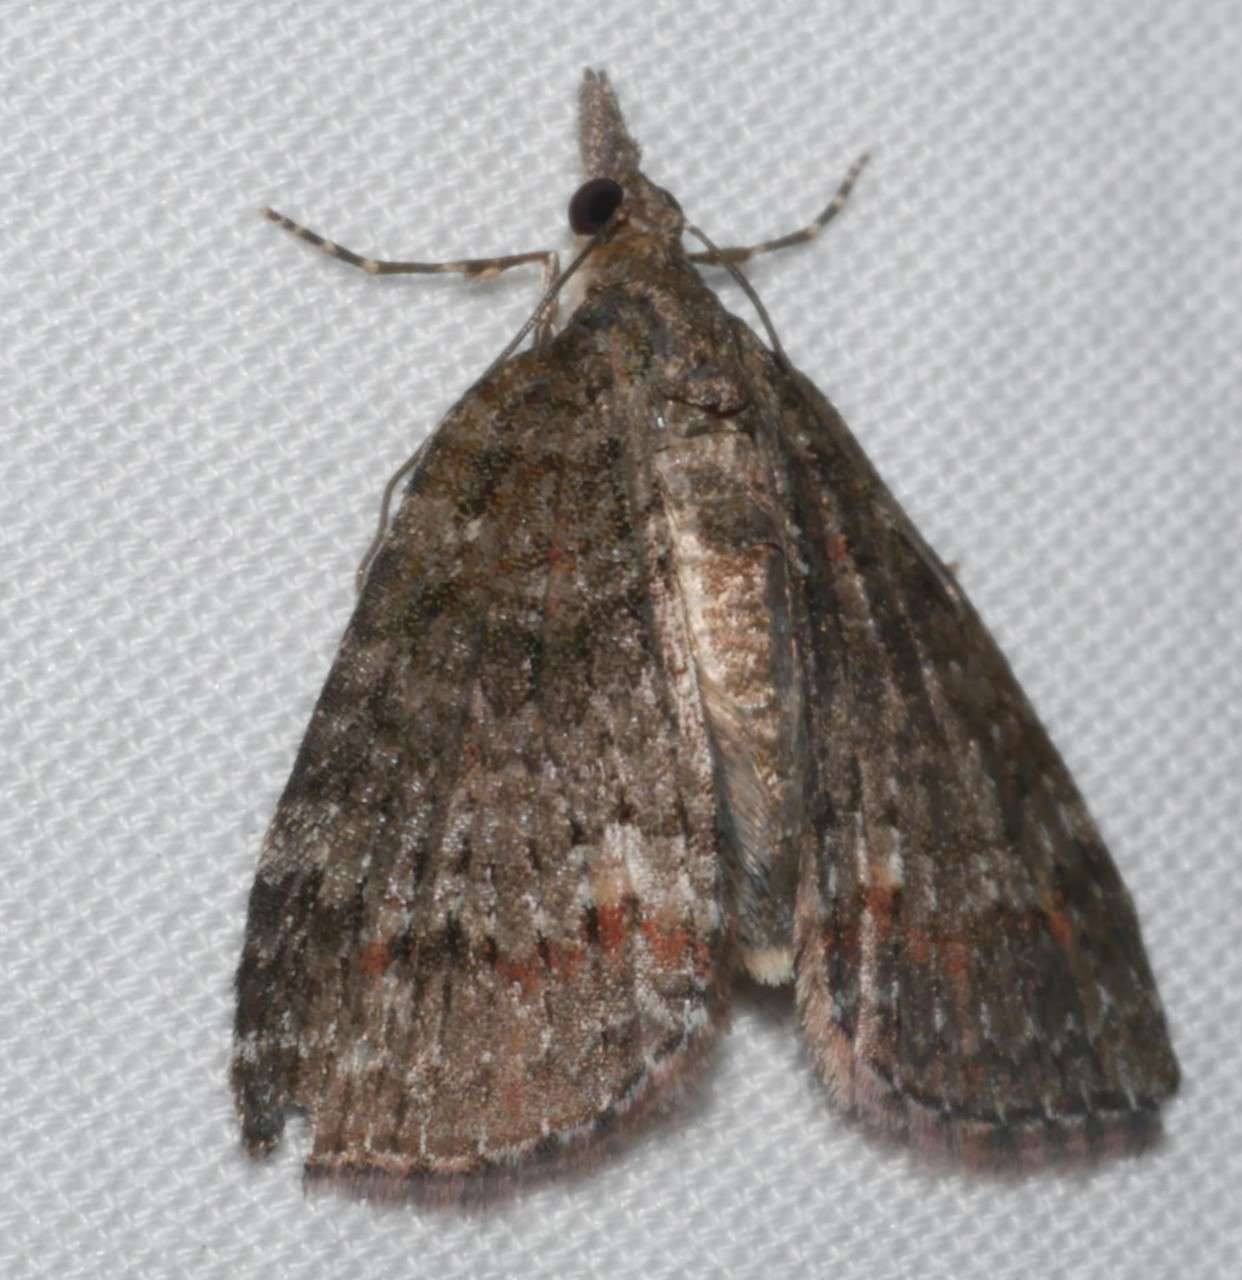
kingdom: Animalia
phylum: Arthropoda
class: Insecta
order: Lepidoptera
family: Geometridae
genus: Microdes
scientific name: Microdes squamulata
